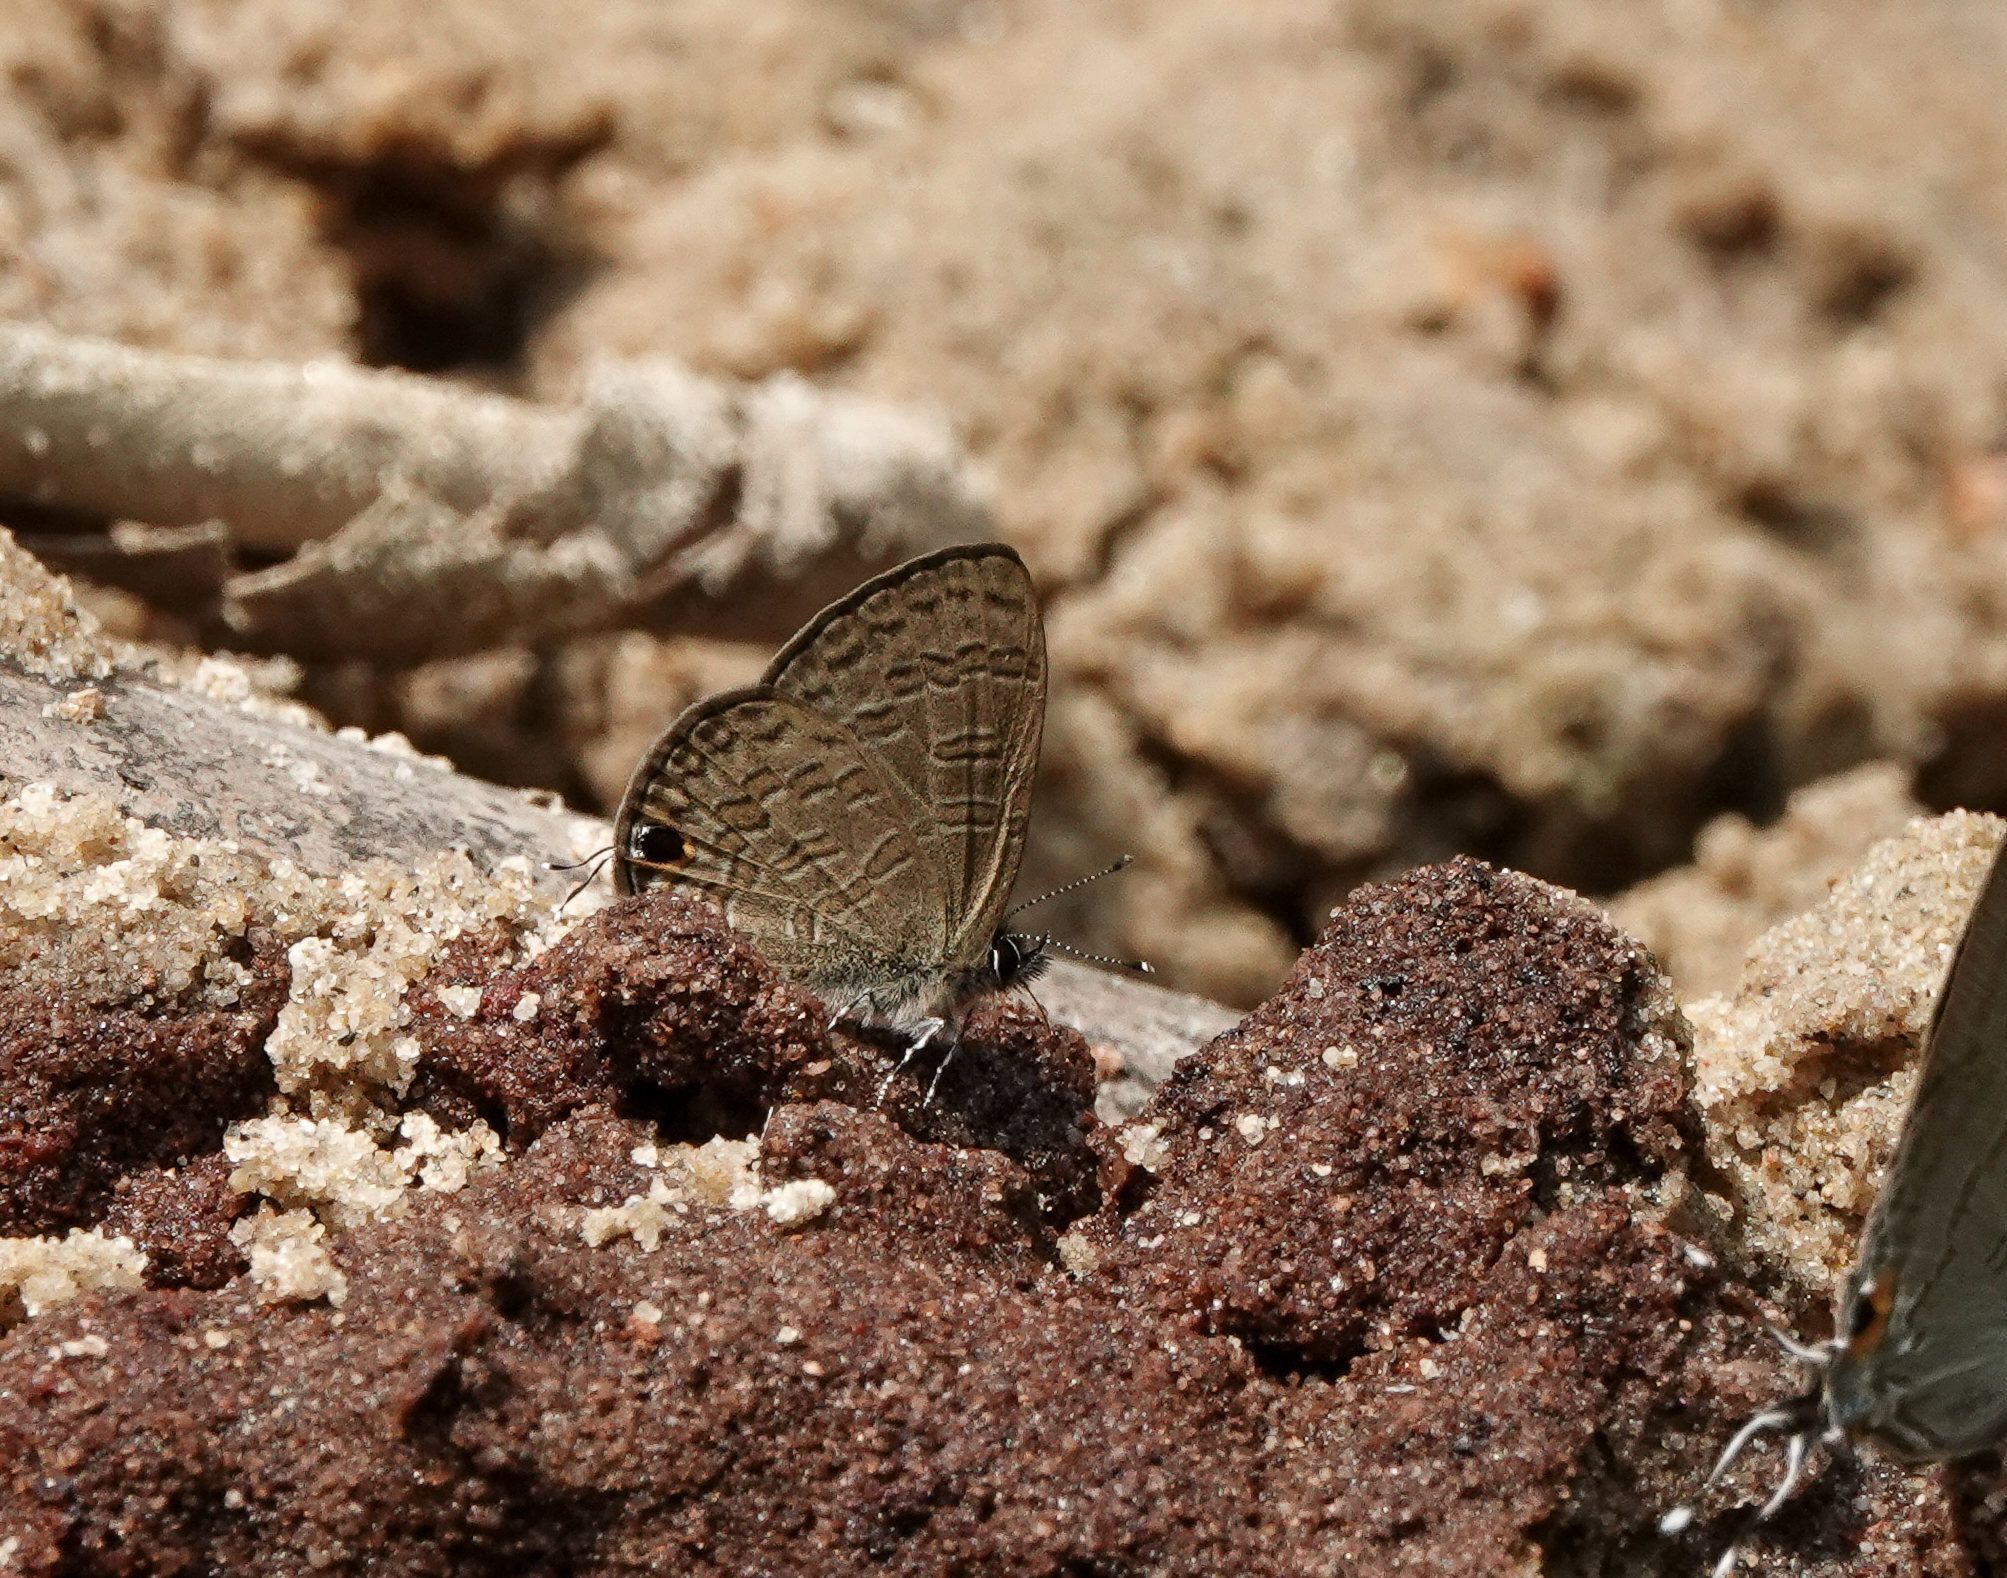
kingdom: Animalia
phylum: Arthropoda
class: Insecta
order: Lepidoptera
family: Lycaenidae
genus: Prosotas
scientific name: Prosotas nora
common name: Common line blue
